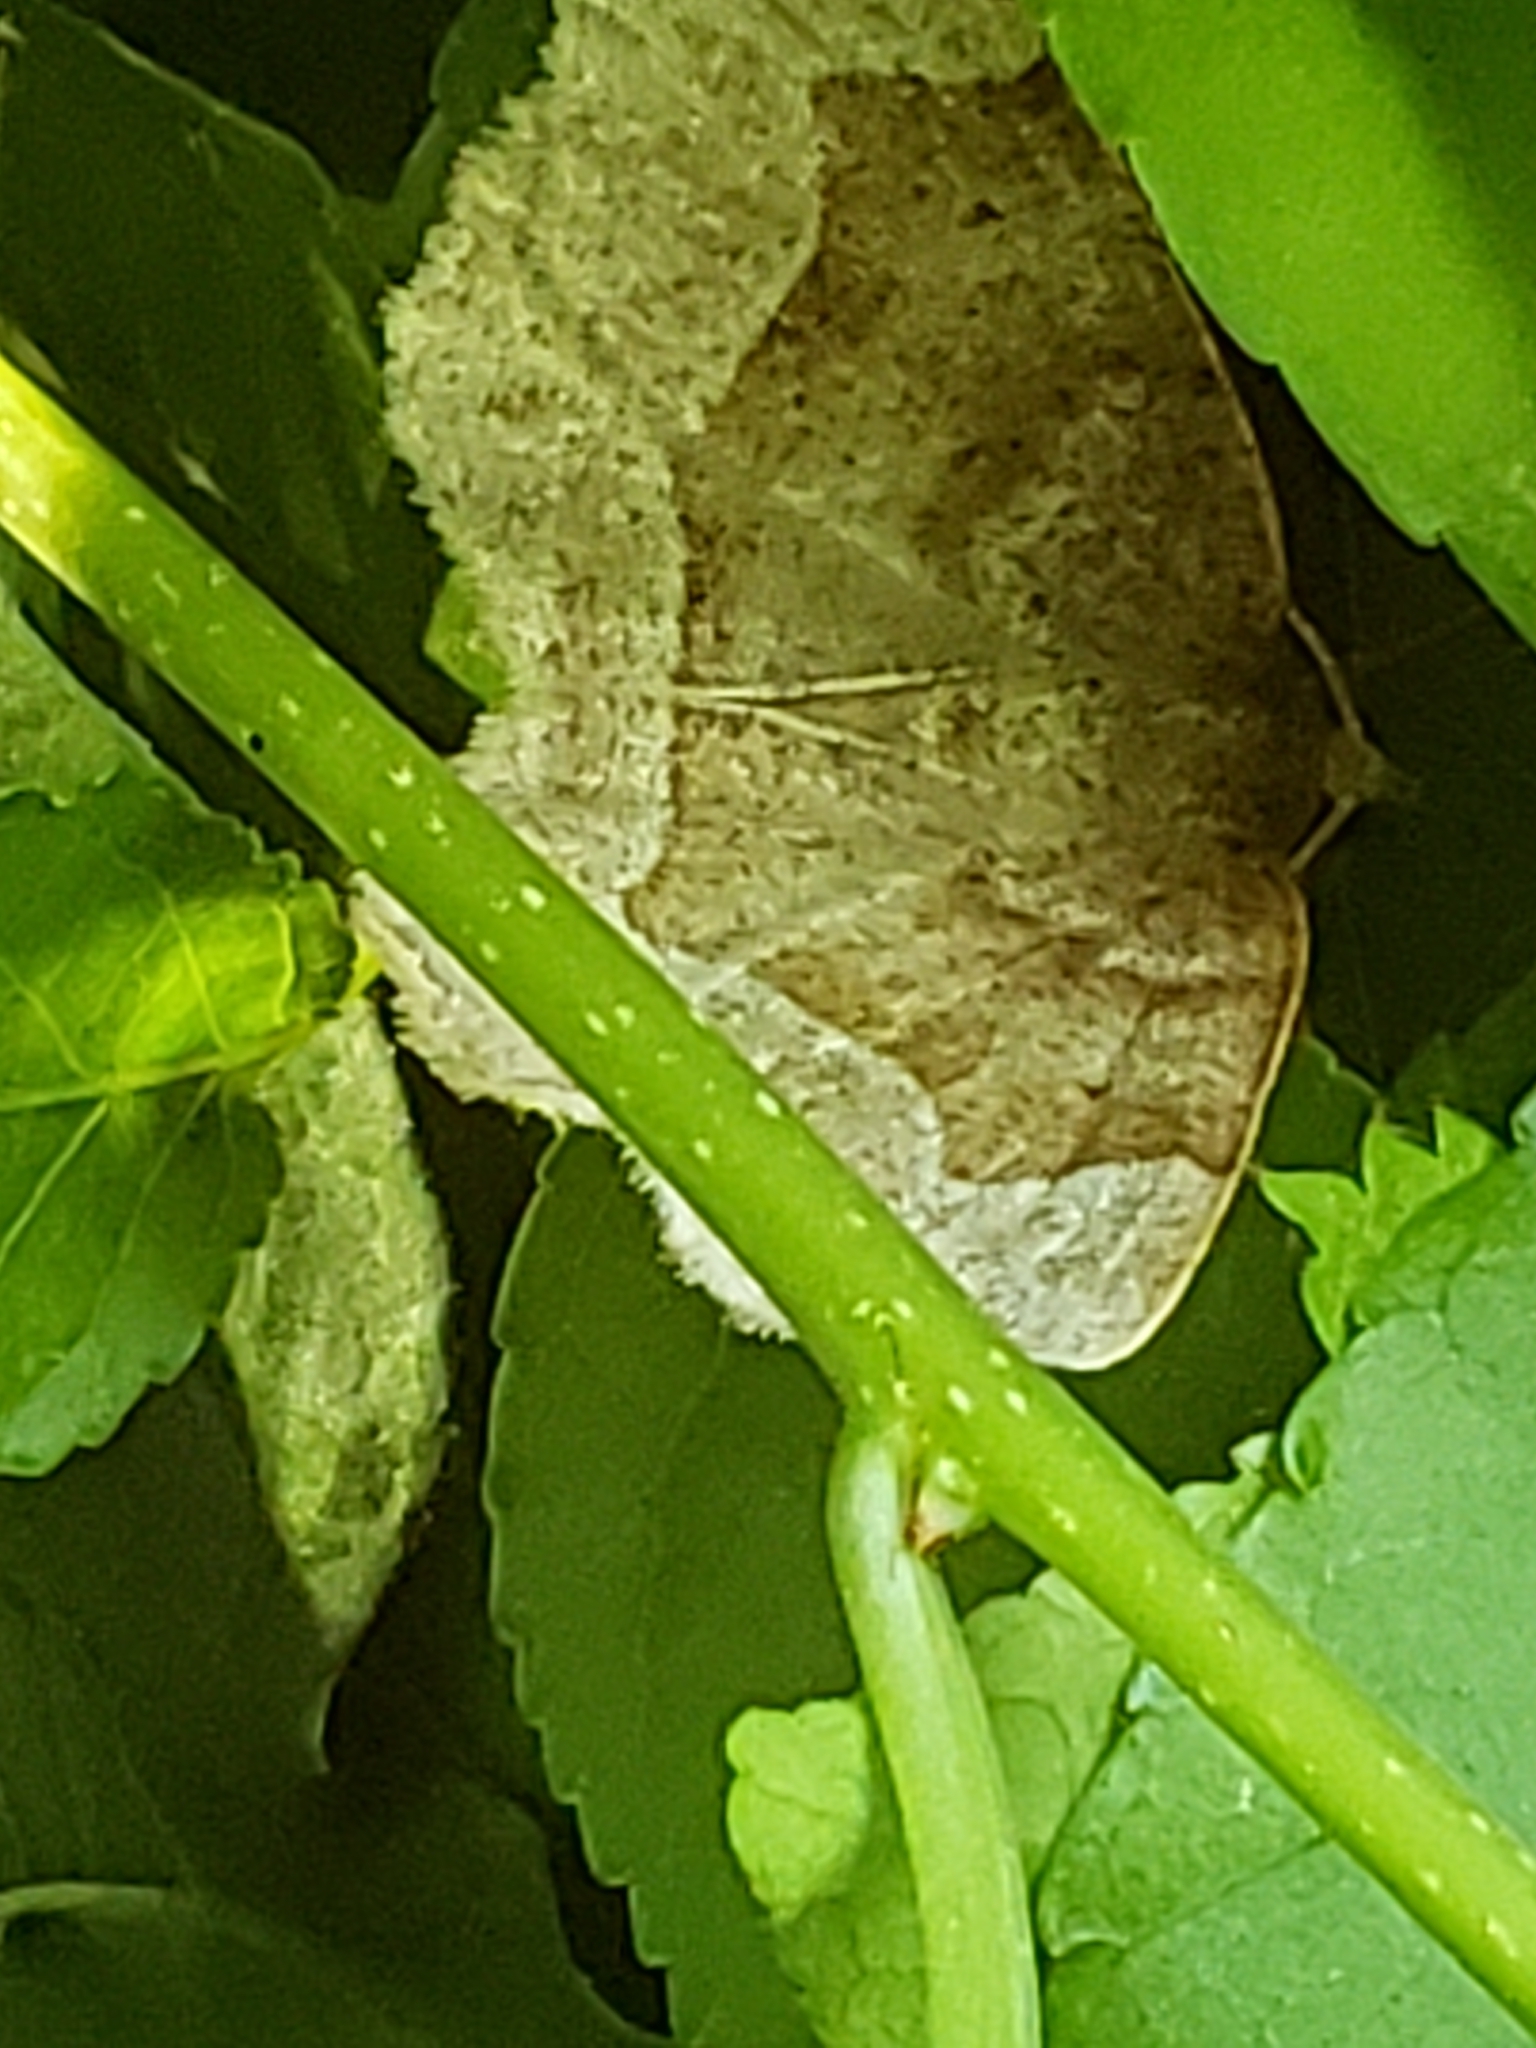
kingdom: Animalia
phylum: Arthropoda
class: Insecta
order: Lepidoptera
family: Geometridae
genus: Metarranthis
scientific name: Metarranthis hypochraria
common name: Common metarranthis
